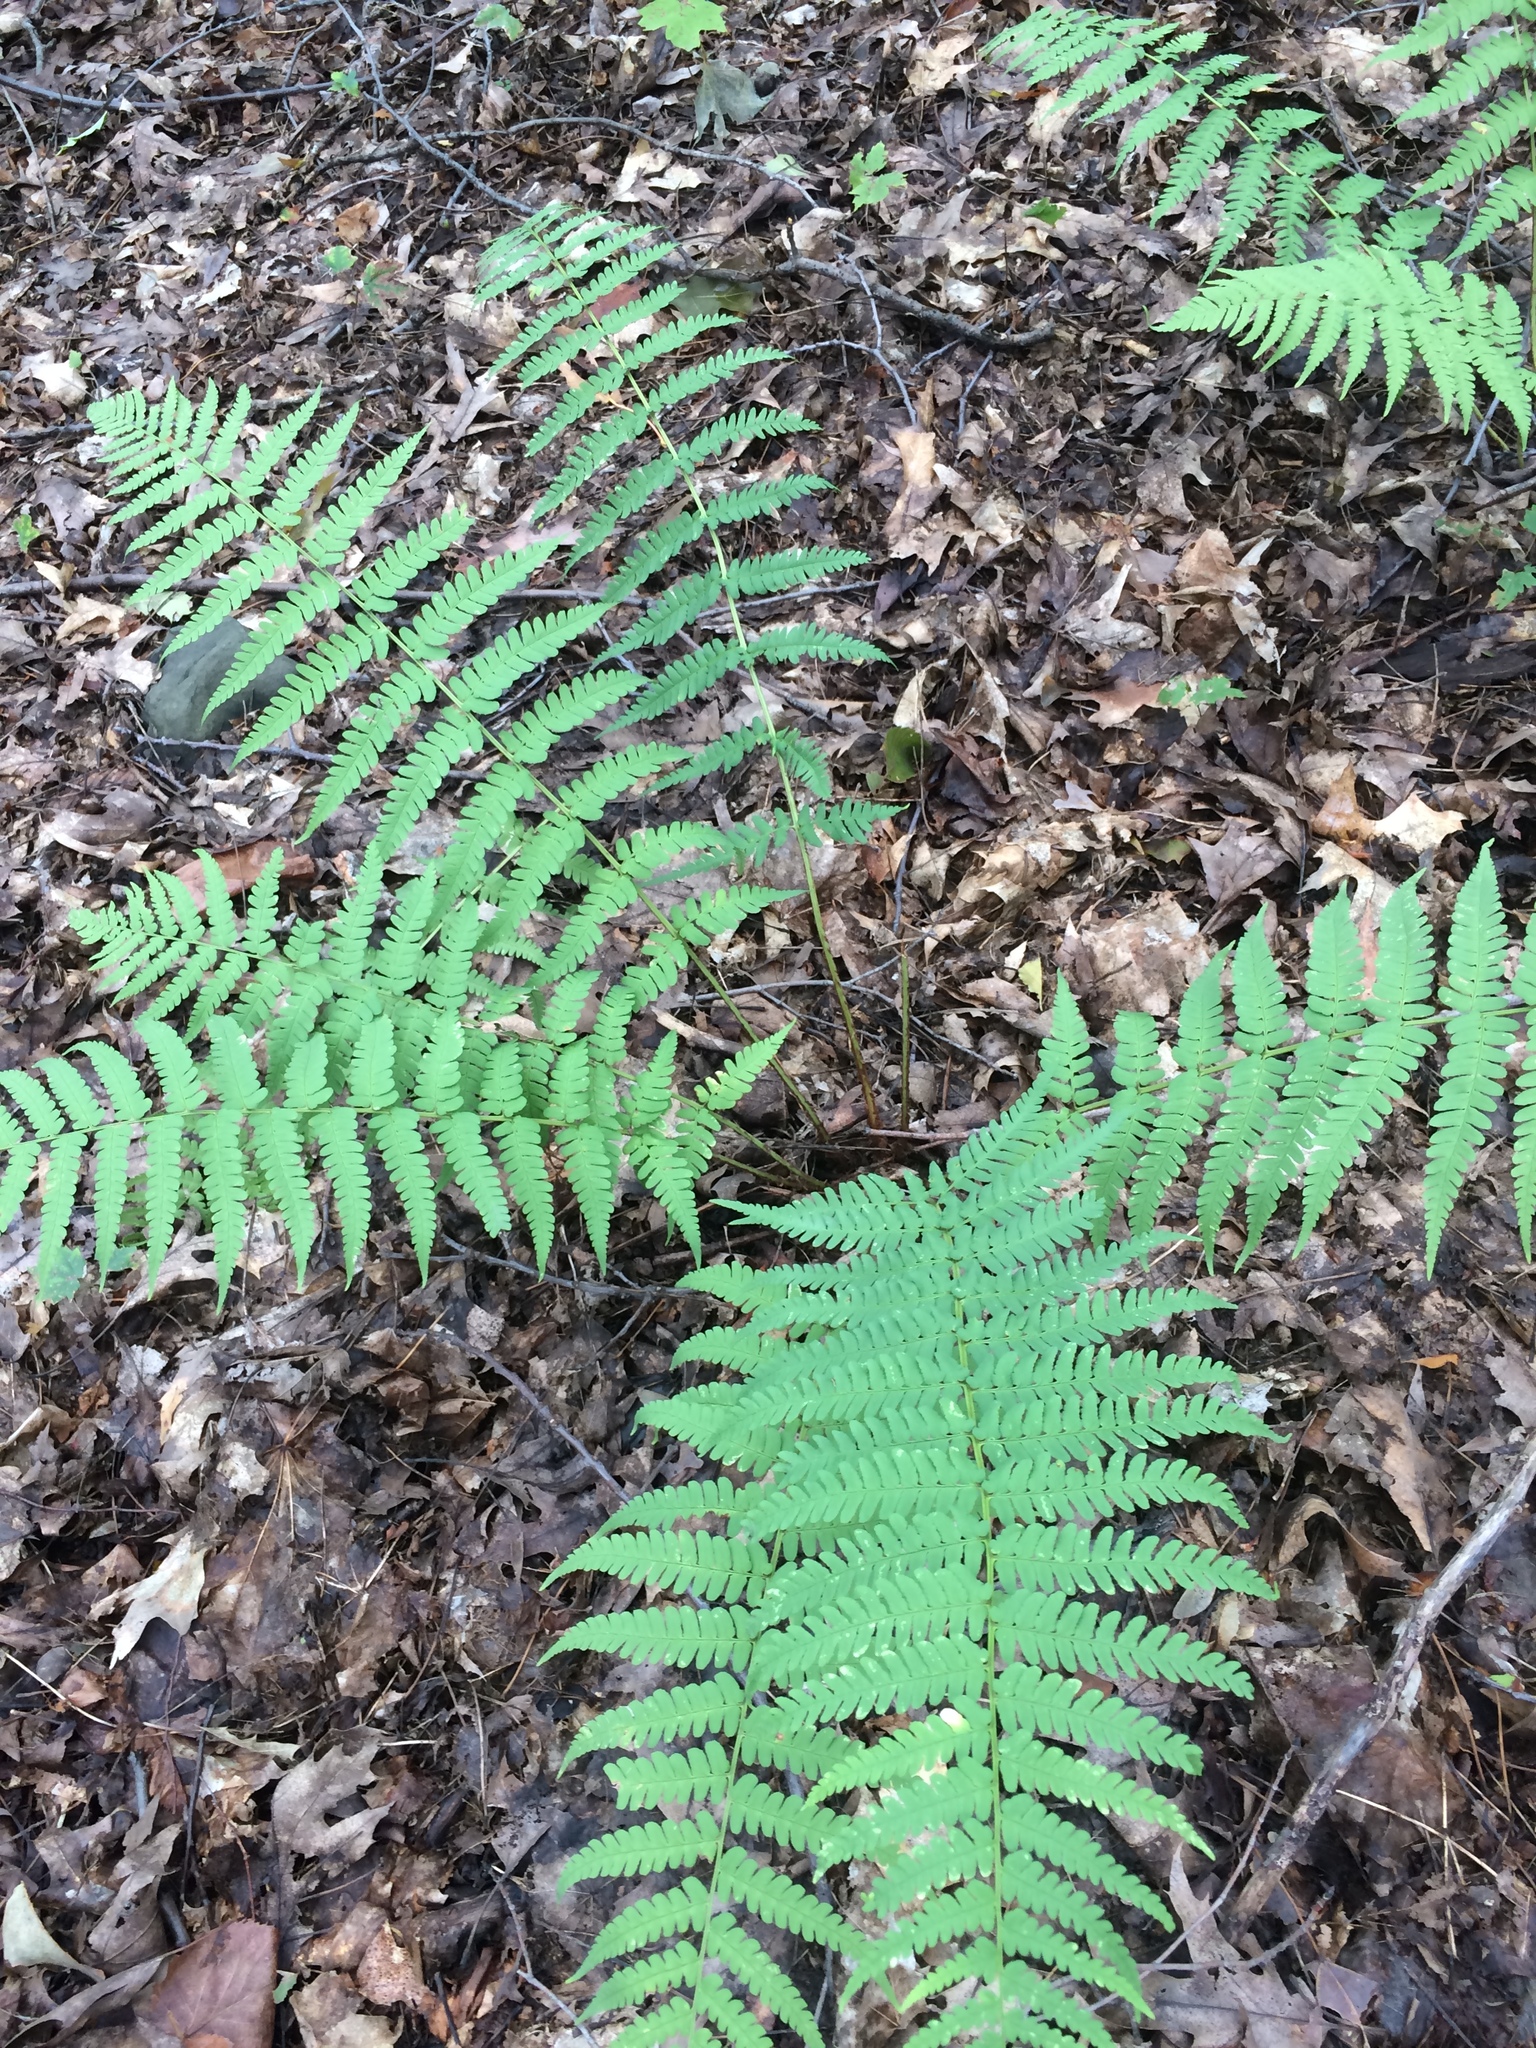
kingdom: Plantae
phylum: Tracheophyta
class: Polypodiopsida
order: Polypodiales
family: Dryopteridaceae
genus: Dryopteris
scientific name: Dryopteris marginalis
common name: Marginal wood fern
